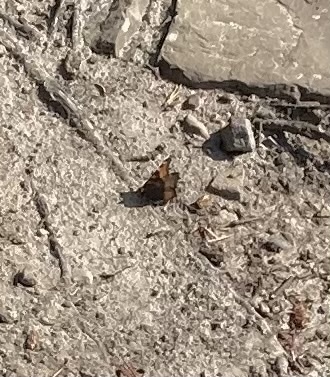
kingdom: Animalia
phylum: Arthropoda
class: Insecta
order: Lepidoptera
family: Nymphalidae
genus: Aglais
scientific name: Aglais milberti
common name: Milbert's tortoiseshell
